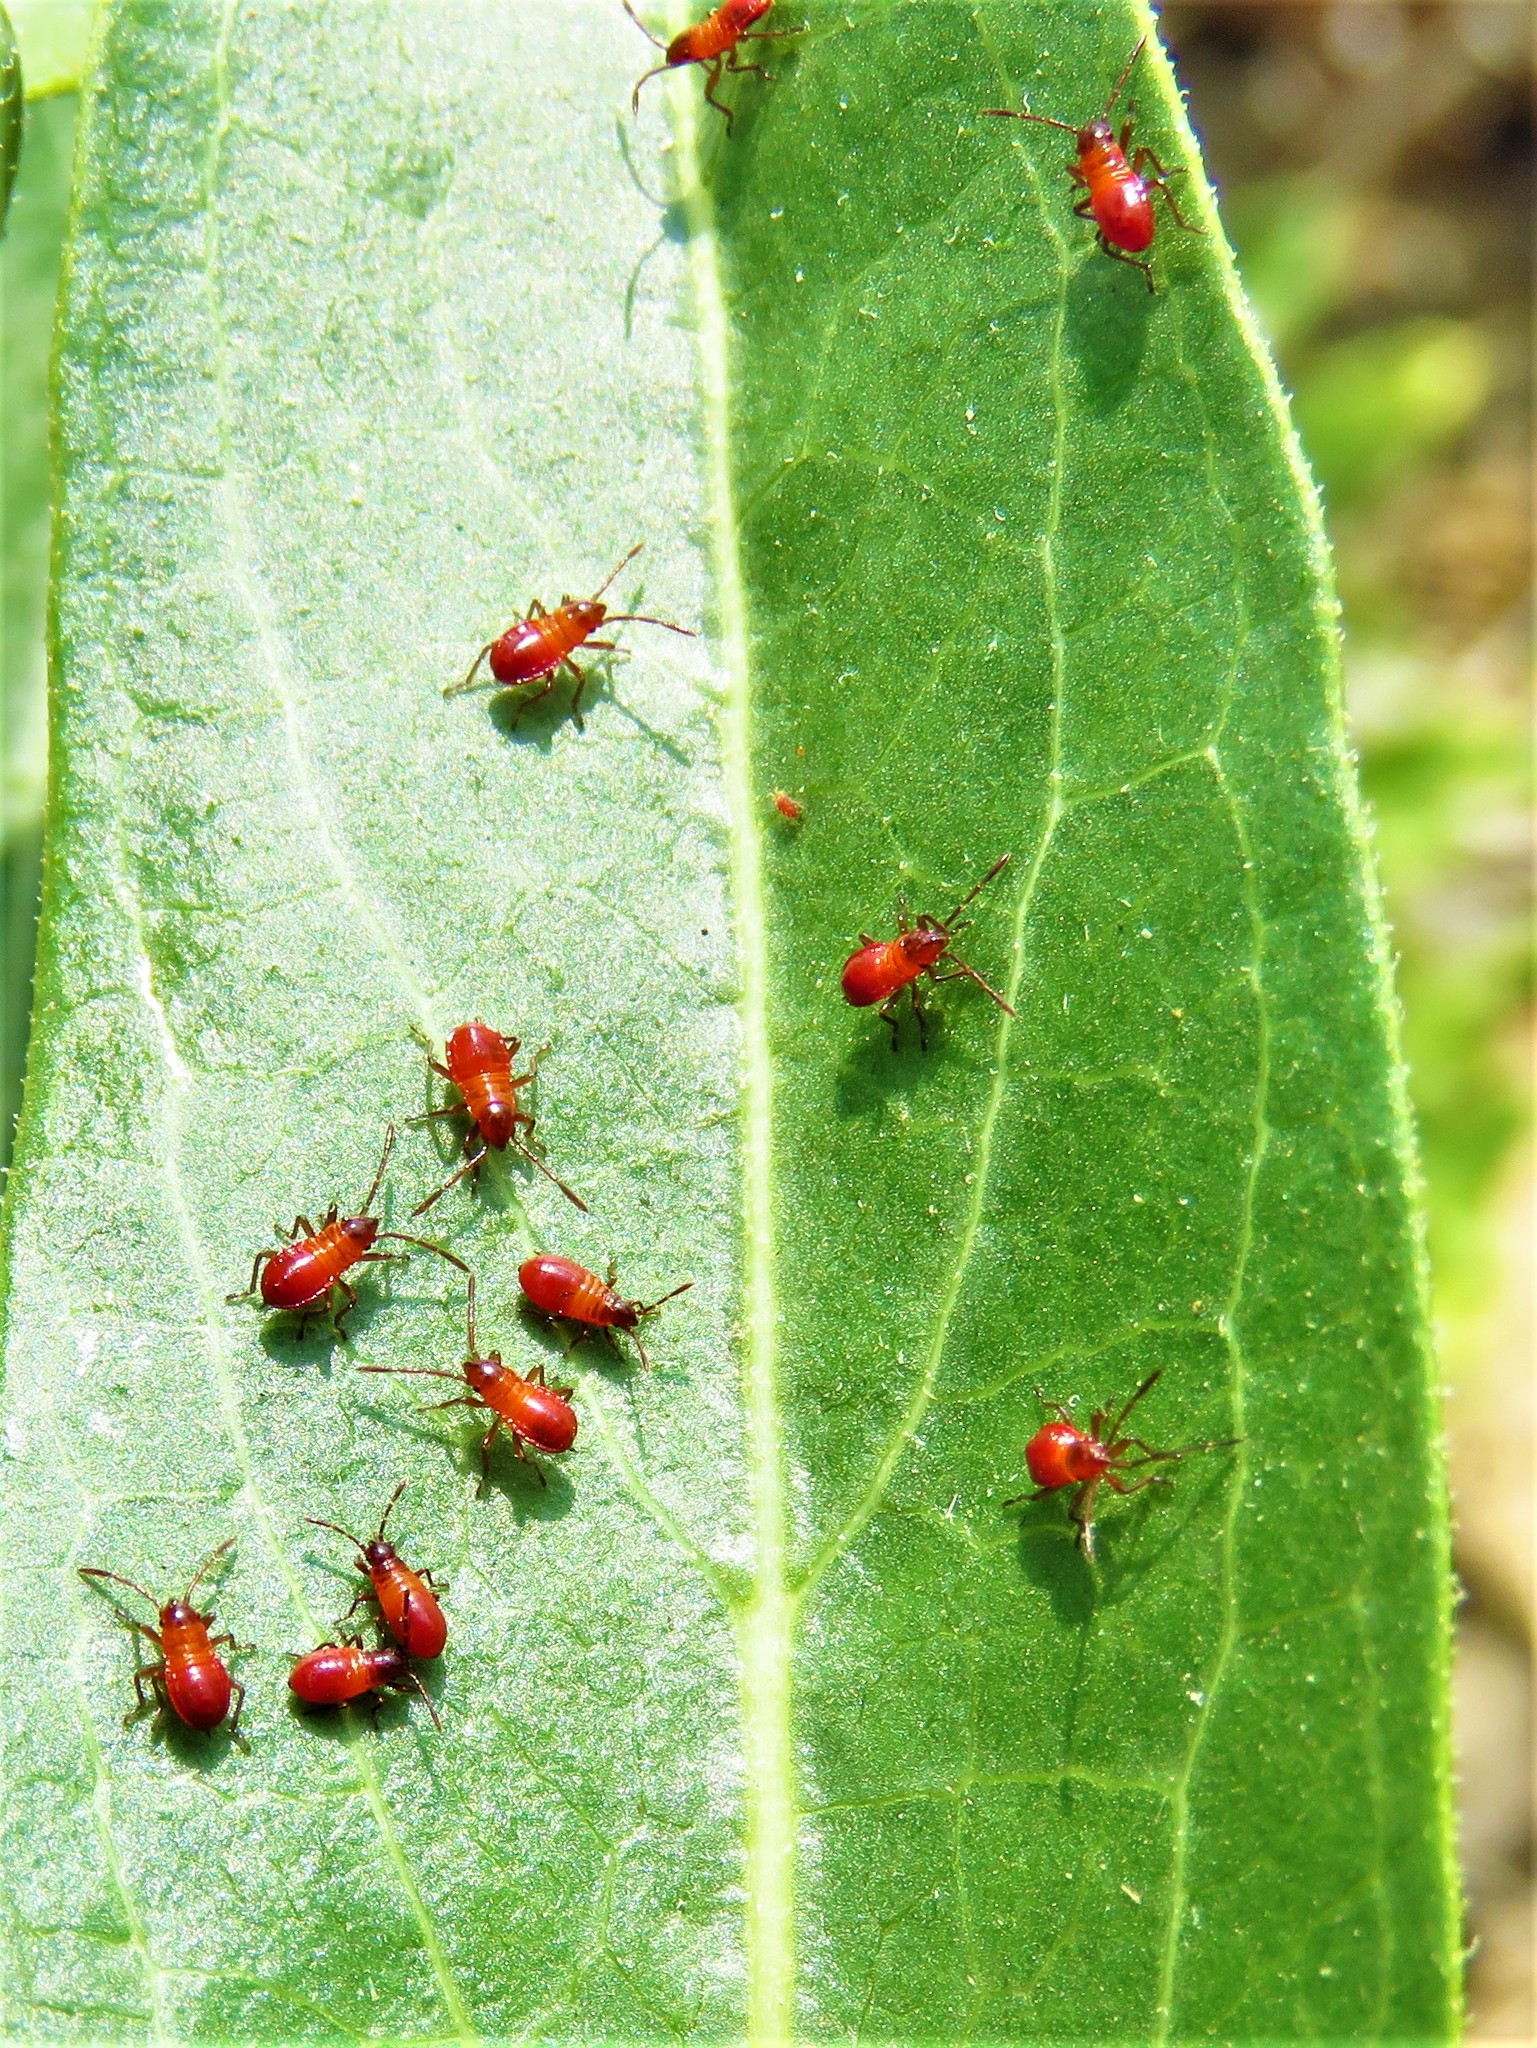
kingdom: Animalia
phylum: Arthropoda
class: Insecta
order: Hemiptera
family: Lygaeidae
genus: Oncopeltus
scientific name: Oncopeltus fasciatus
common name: Large milkweed bug
